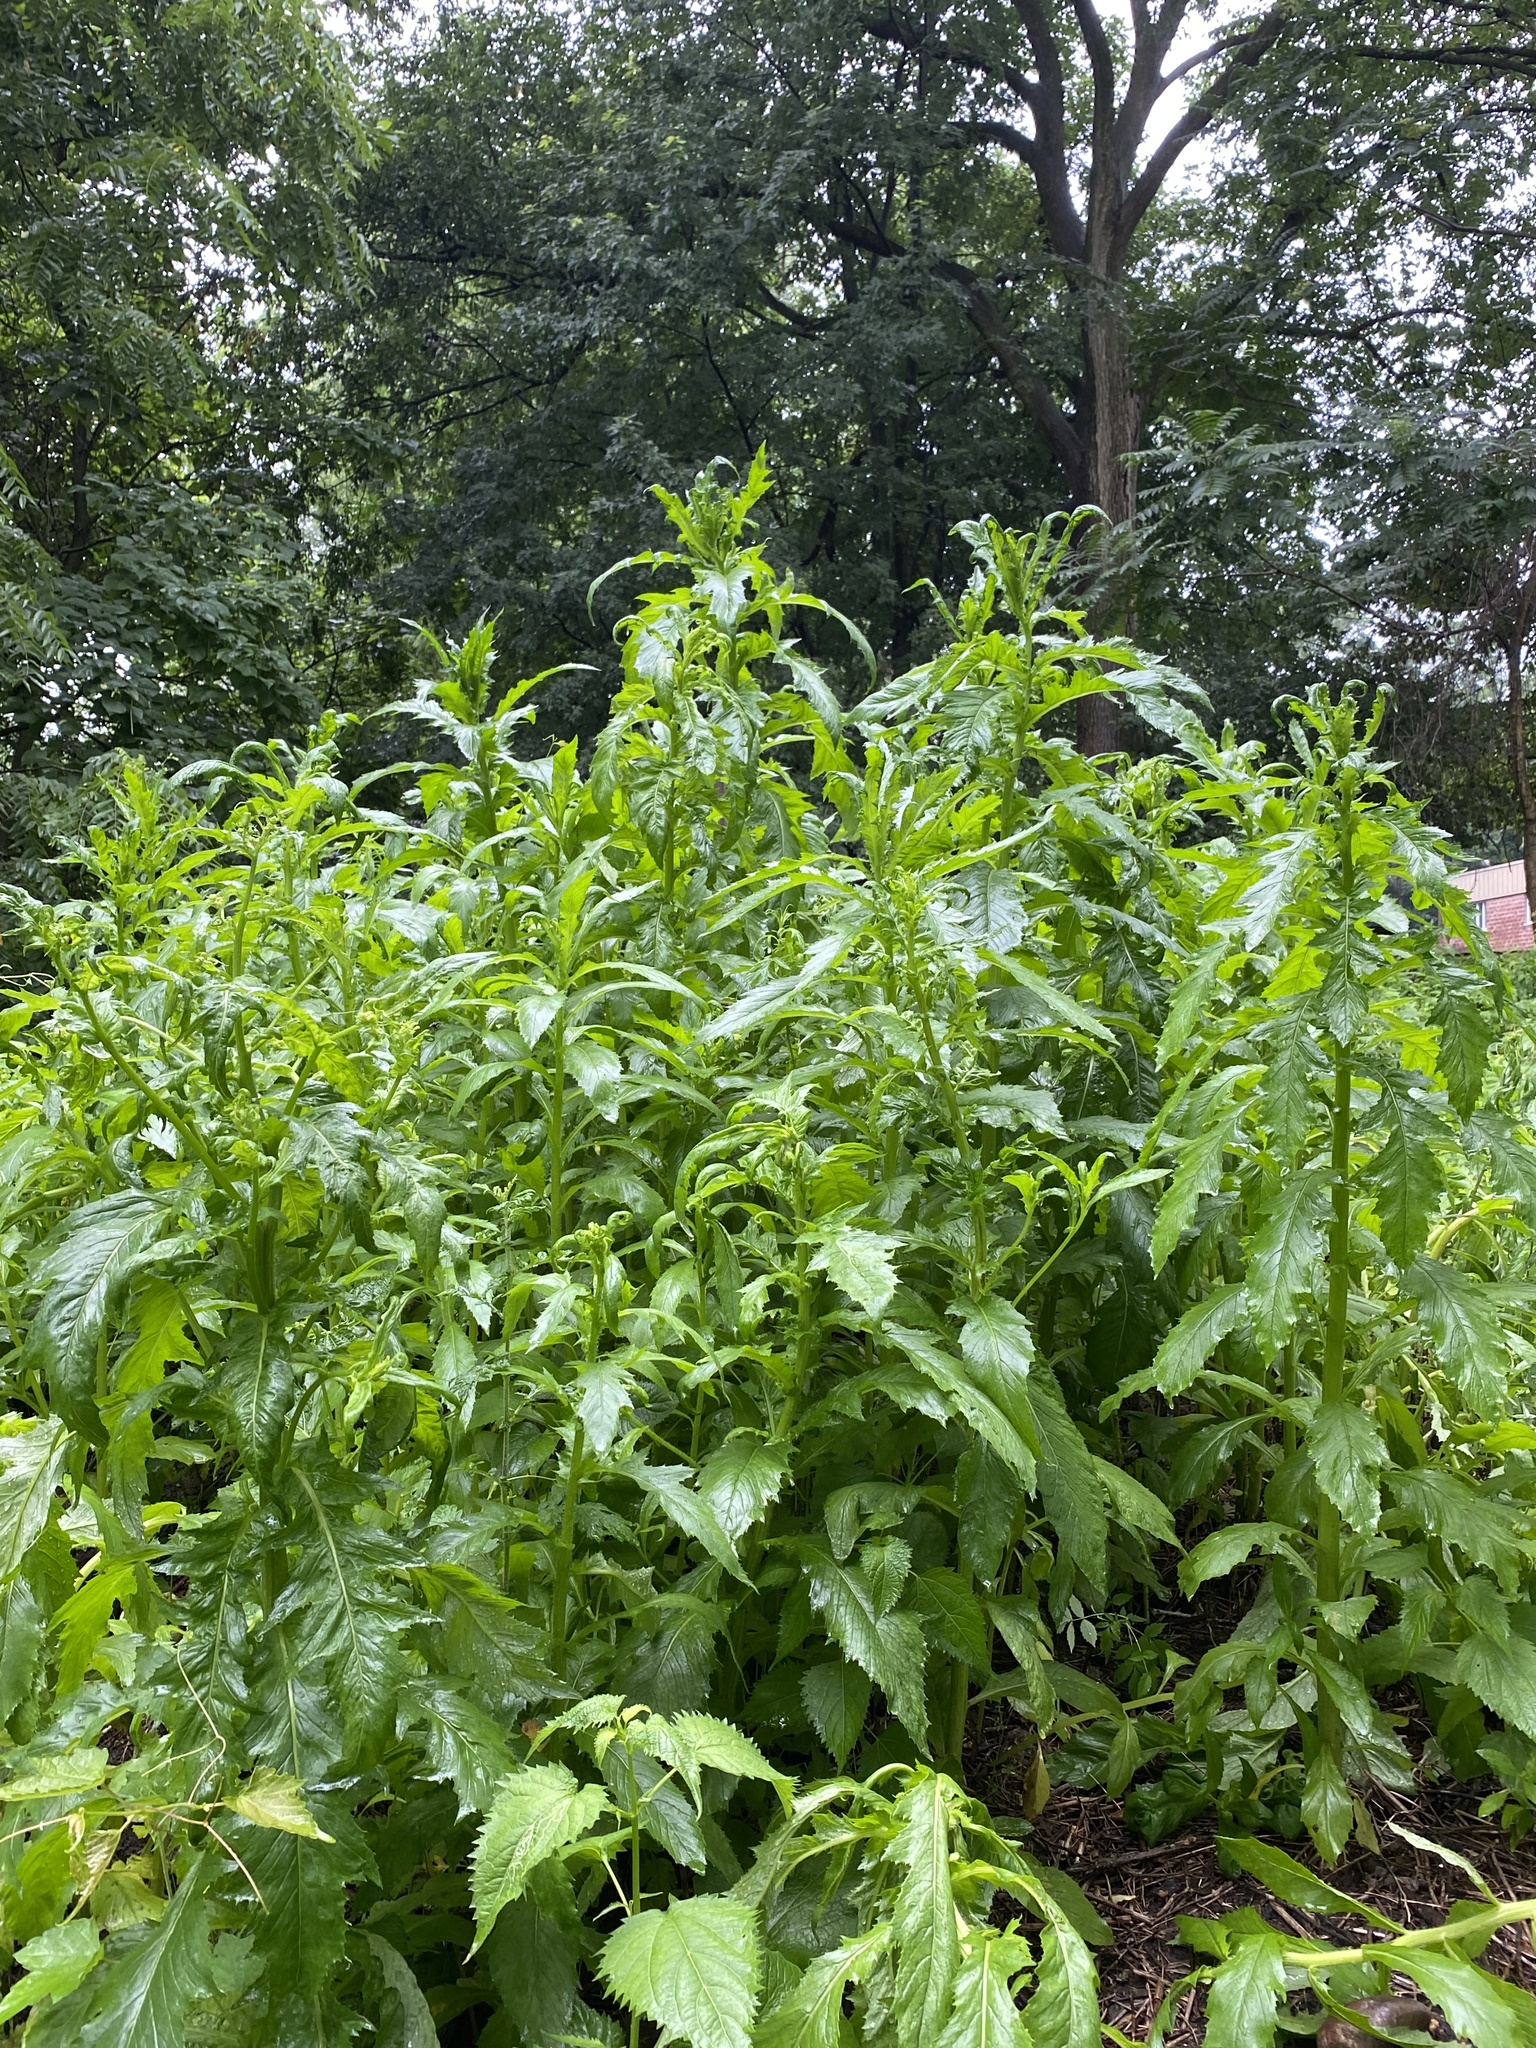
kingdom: Plantae
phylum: Tracheophyta
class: Magnoliopsida
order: Asterales
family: Asteraceae
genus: Erechtites
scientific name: Erechtites hieraciifolius
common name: American burnweed
